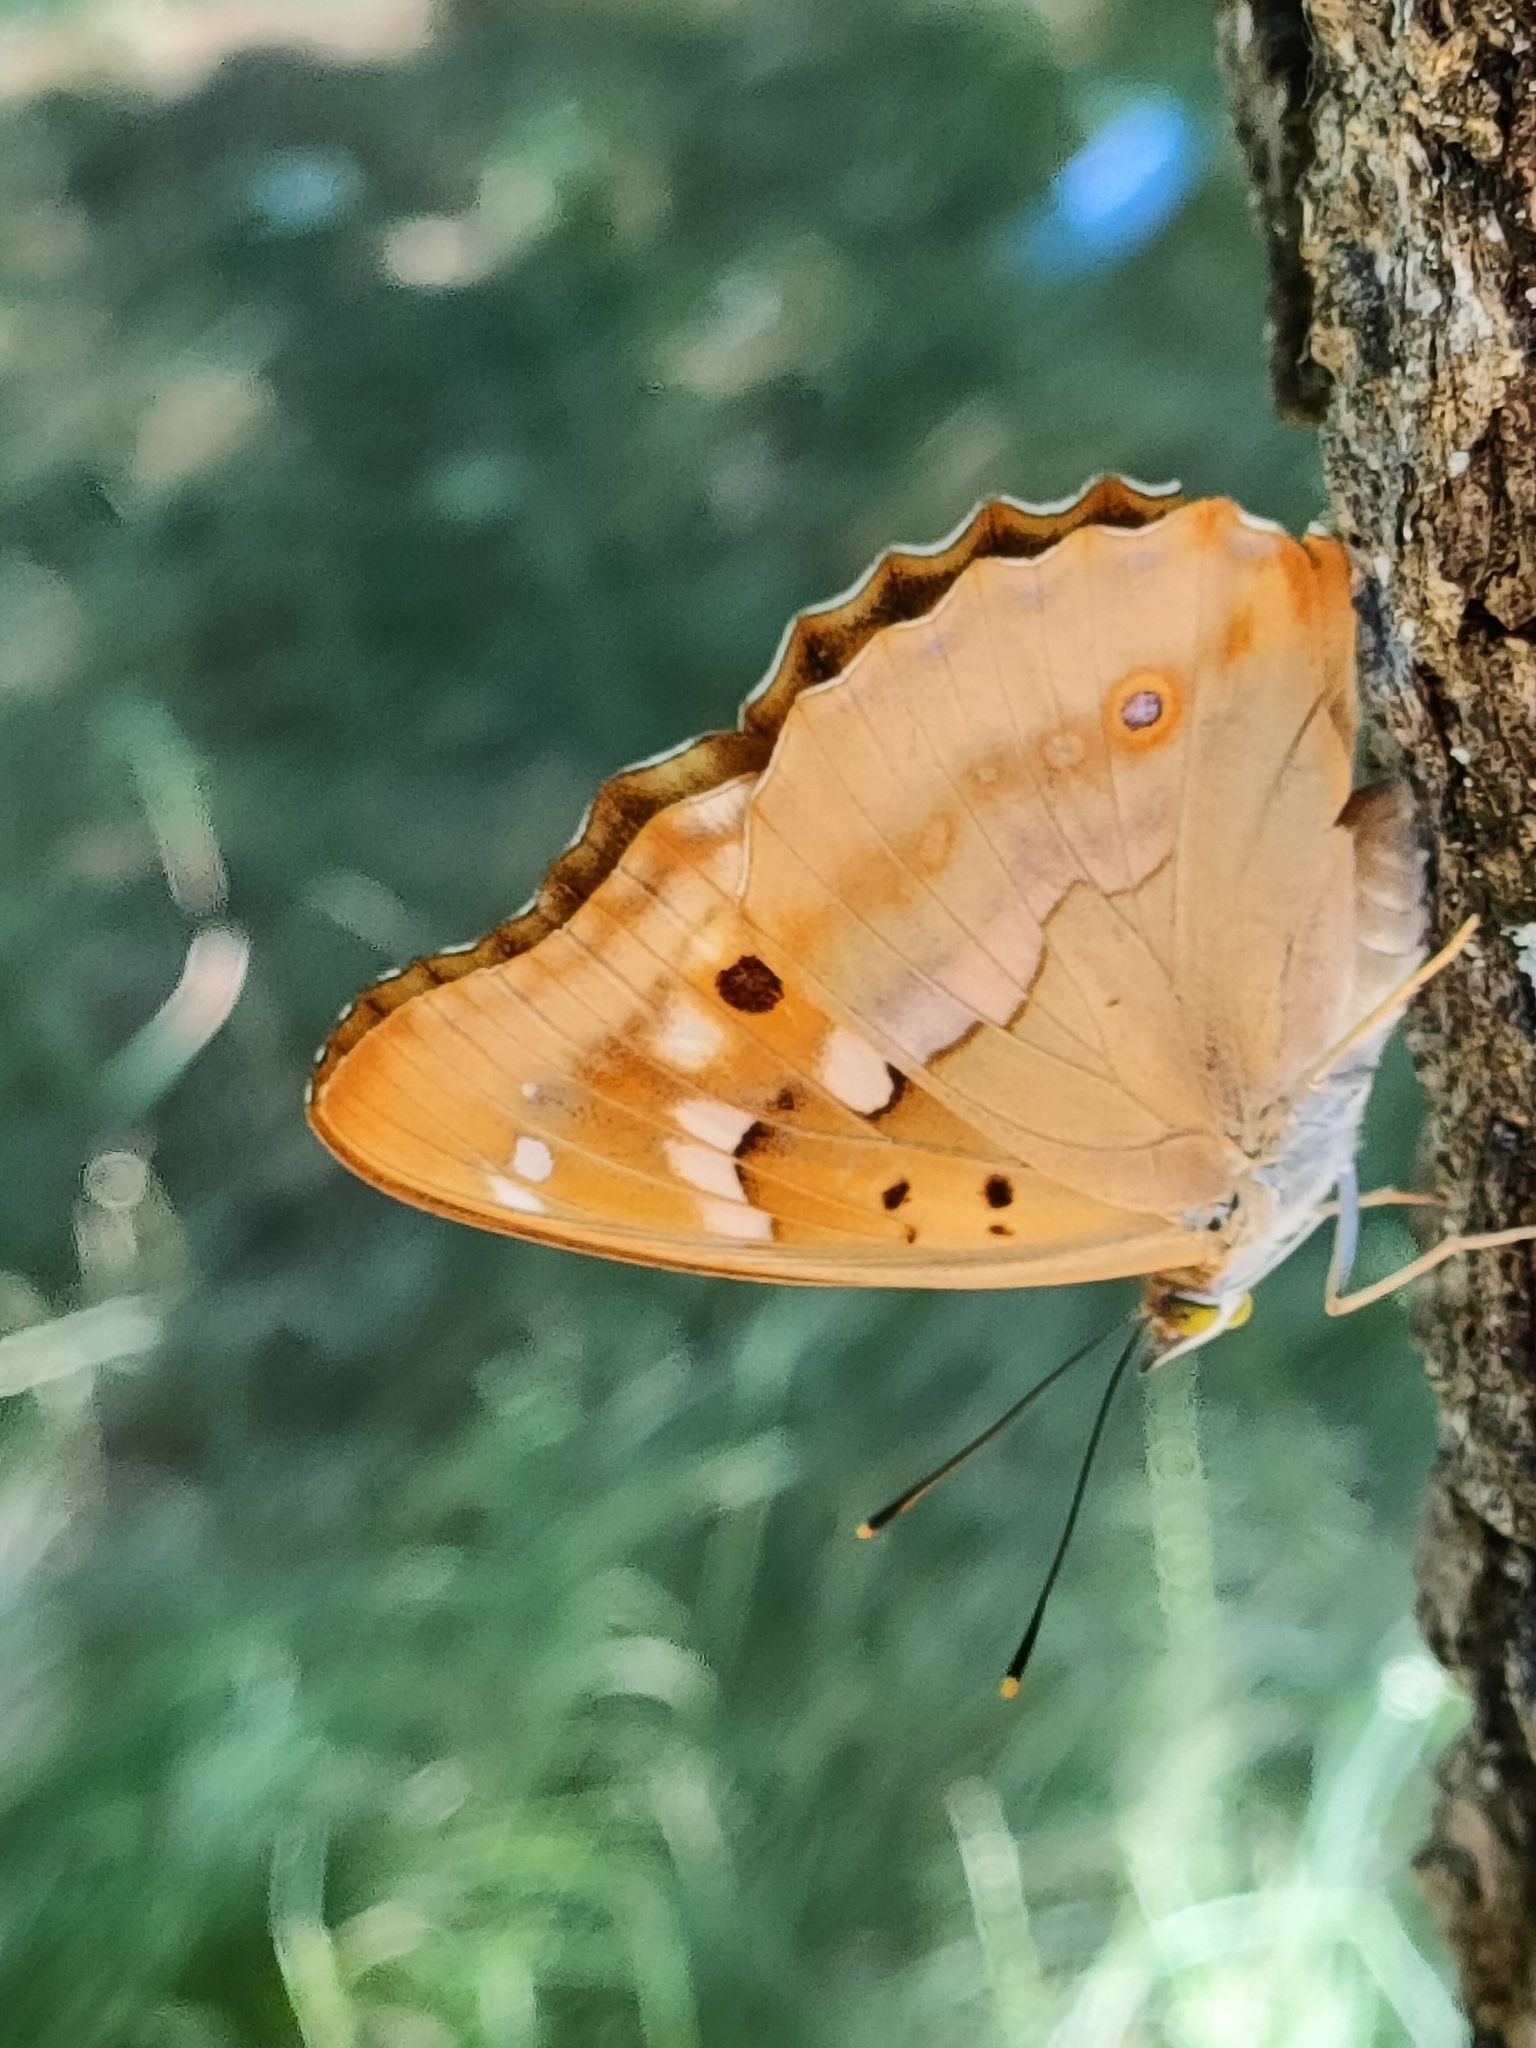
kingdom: Animalia
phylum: Arthropoda
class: Insecta
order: Lepidoptera
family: Nymphalidae
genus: Apatura
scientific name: Apatura ilia
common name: Lesser purple emperor
